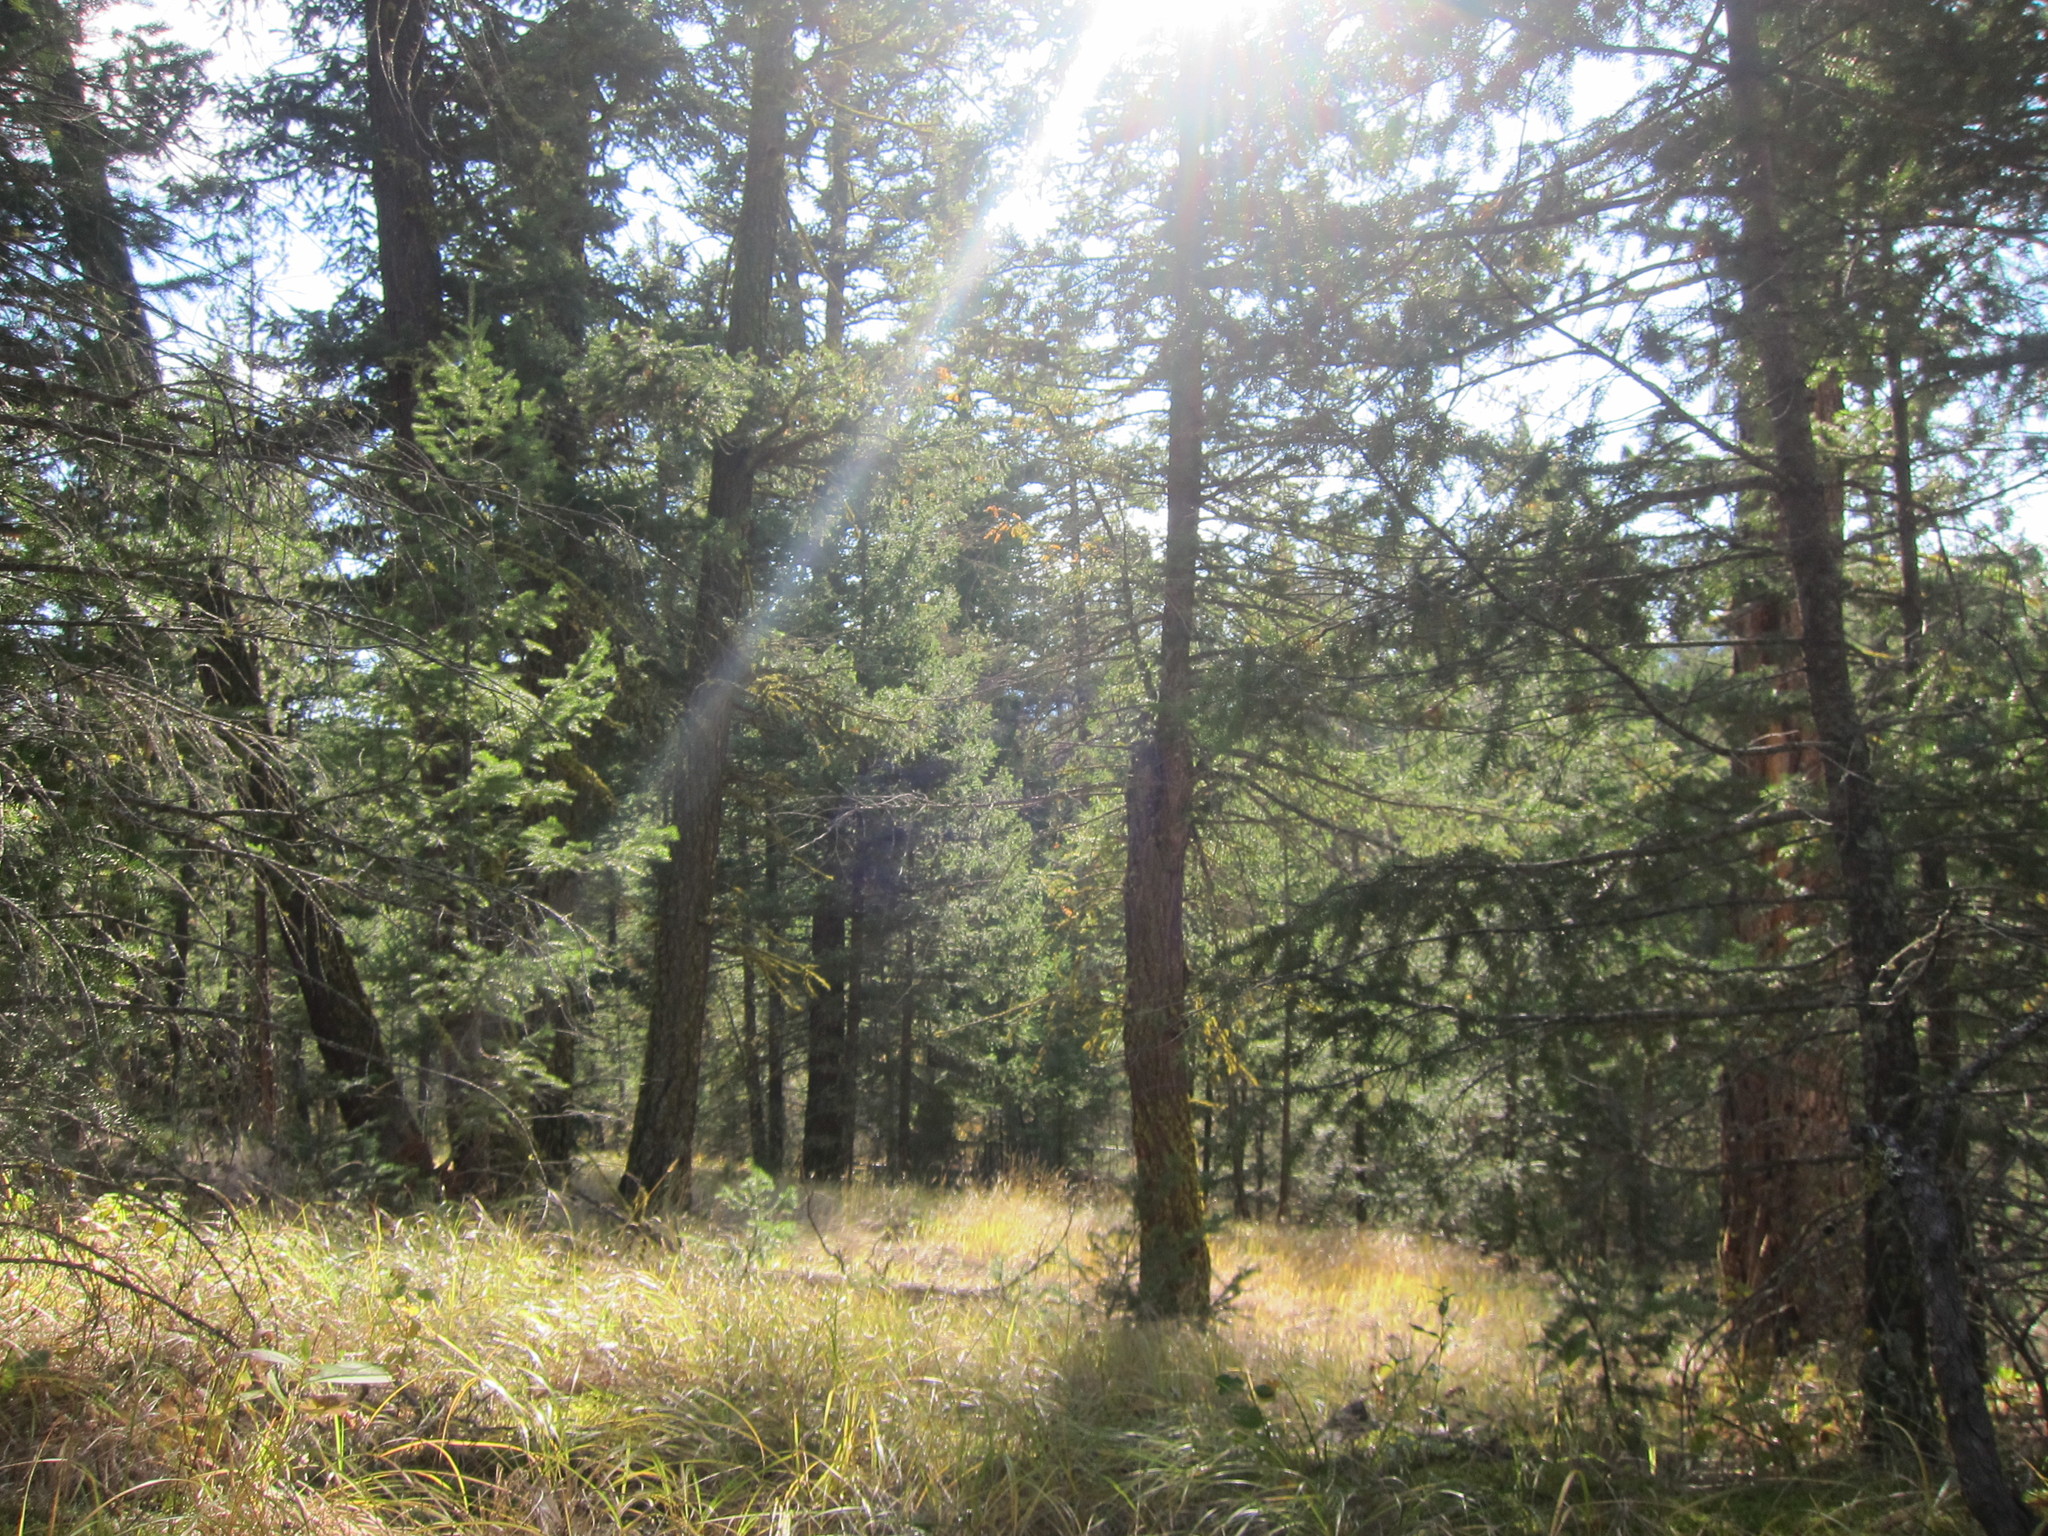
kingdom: Plantae
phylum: Tracheophyta
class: Pinopsida
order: Pinales
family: Pinaceae
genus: Pseudotsuga
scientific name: Pseudotsuga menziesii
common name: Douglas fir
